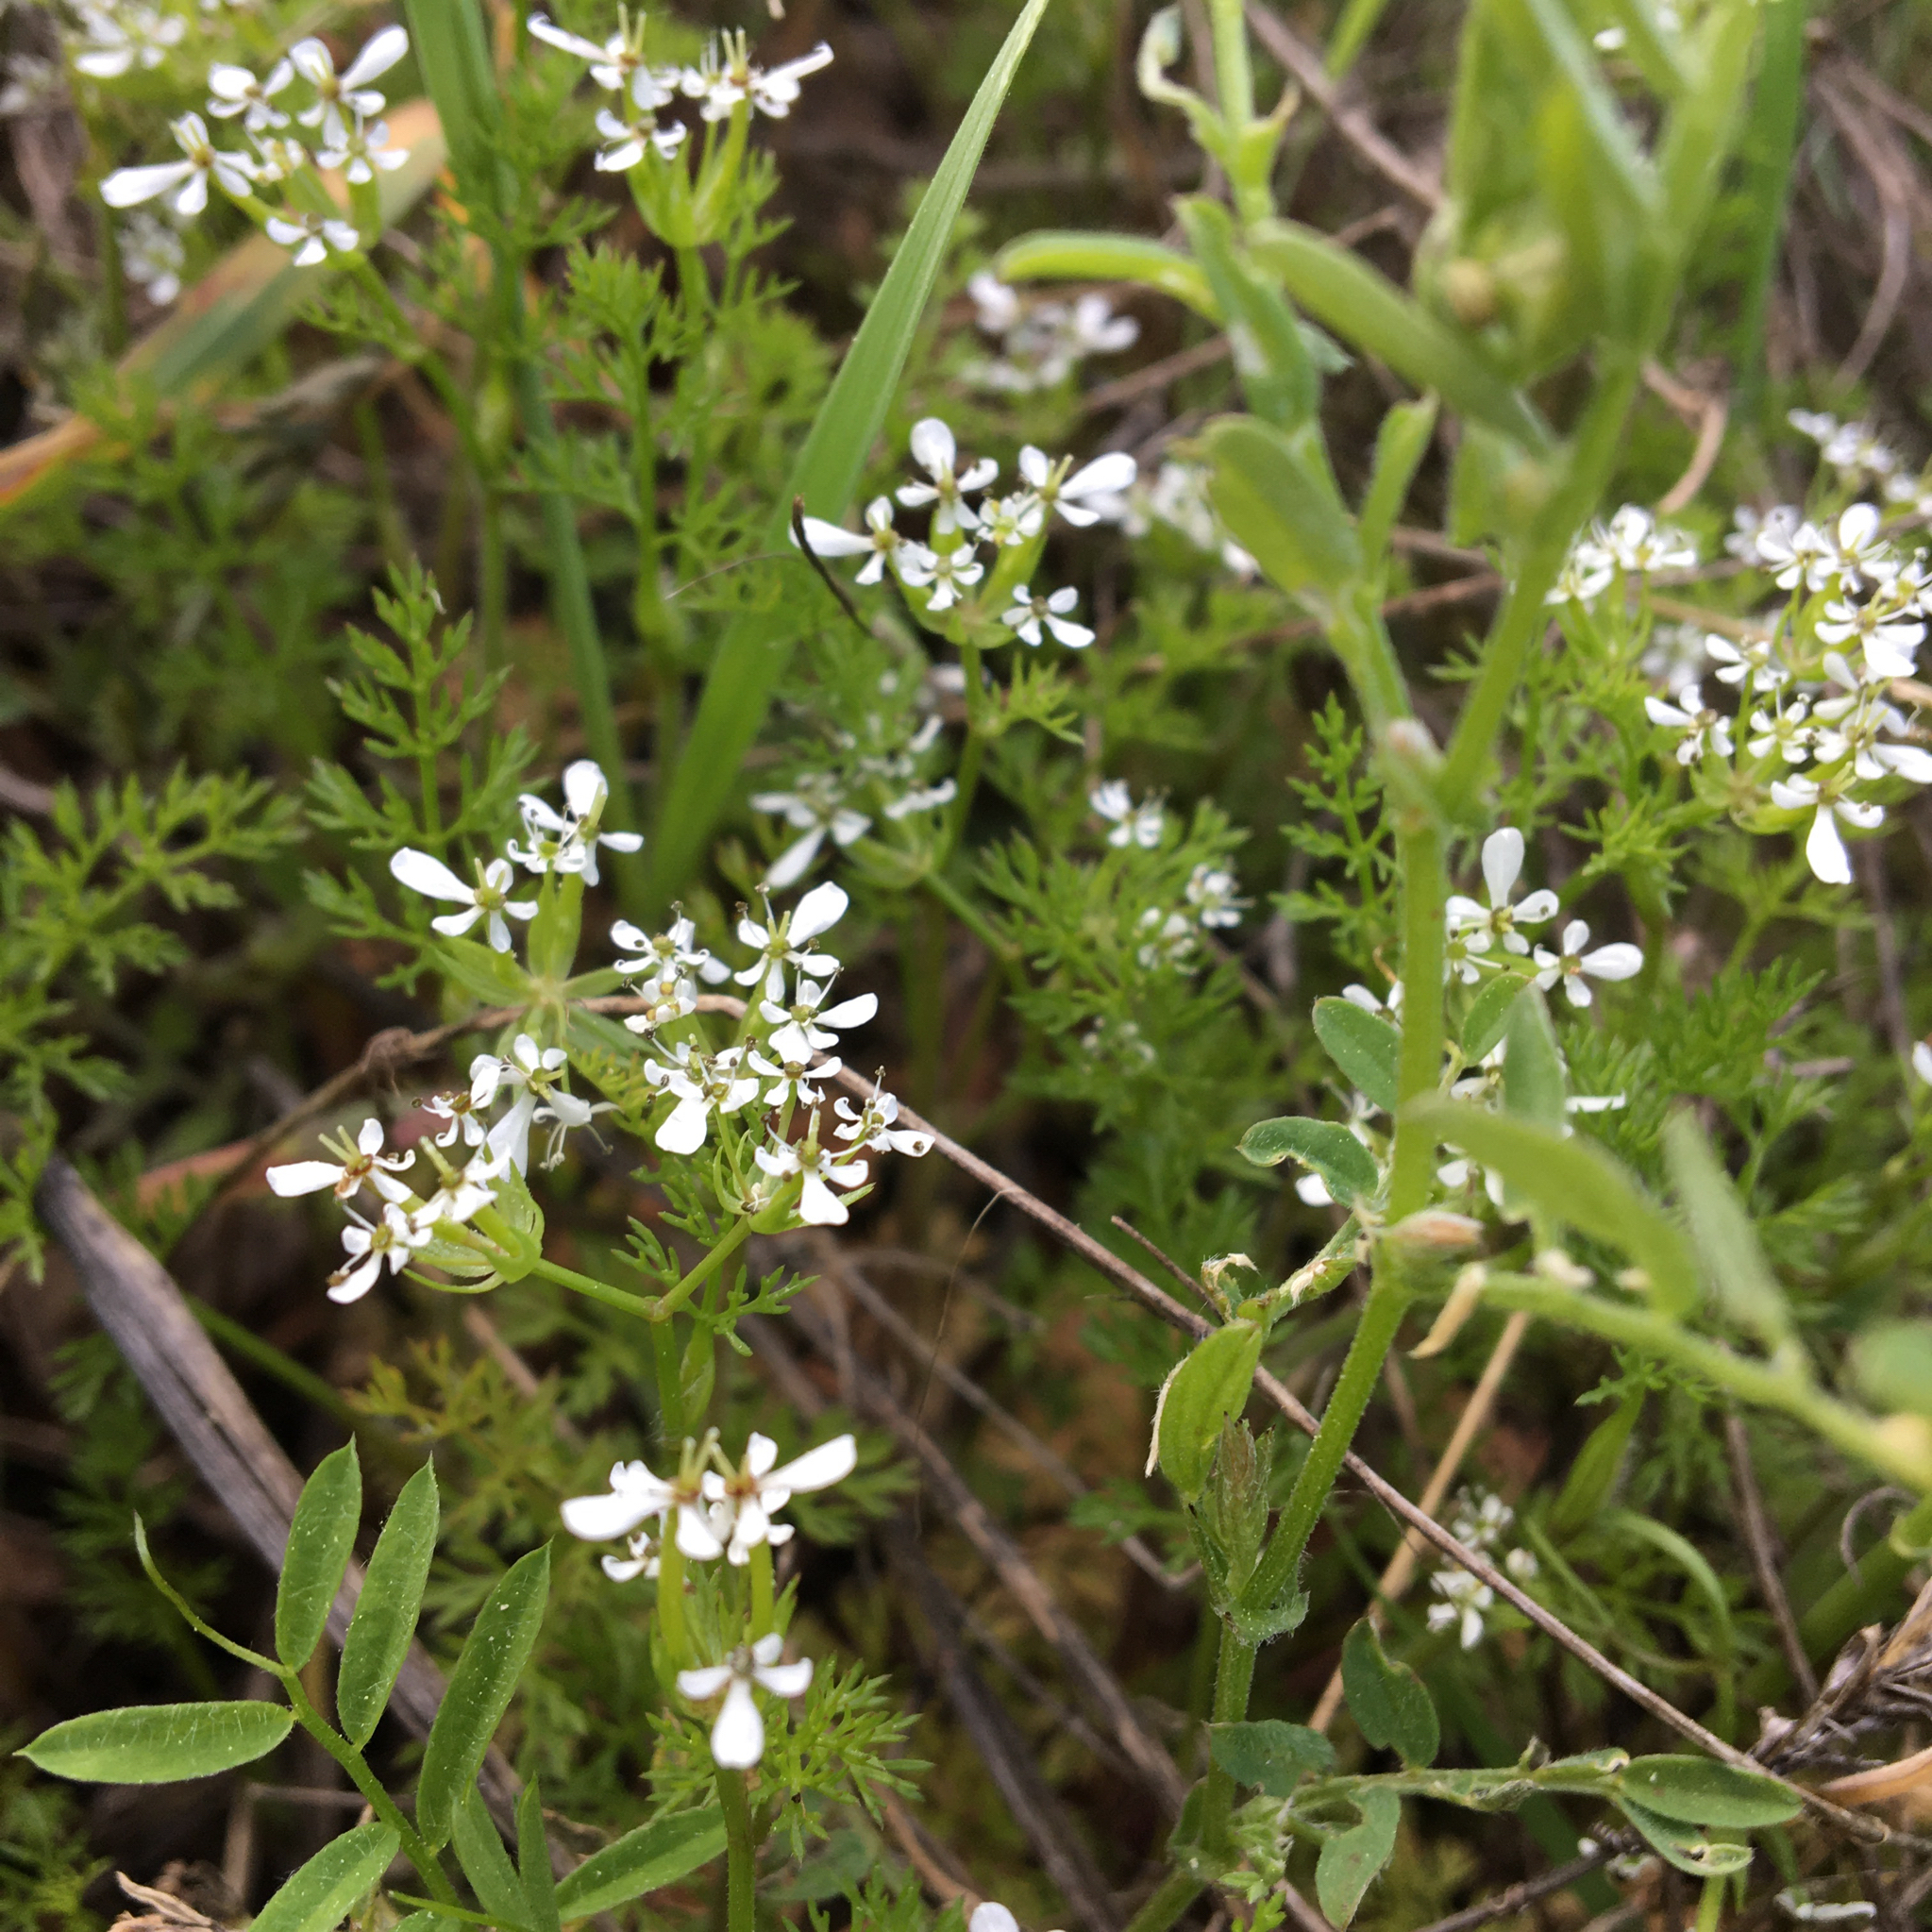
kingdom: Plantae
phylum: Tracheophyta
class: Magnoliopsida
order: Apiales
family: Apiaceae
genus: Scandix
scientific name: Scandix pecten-veneris
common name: Shepherd's-needle
